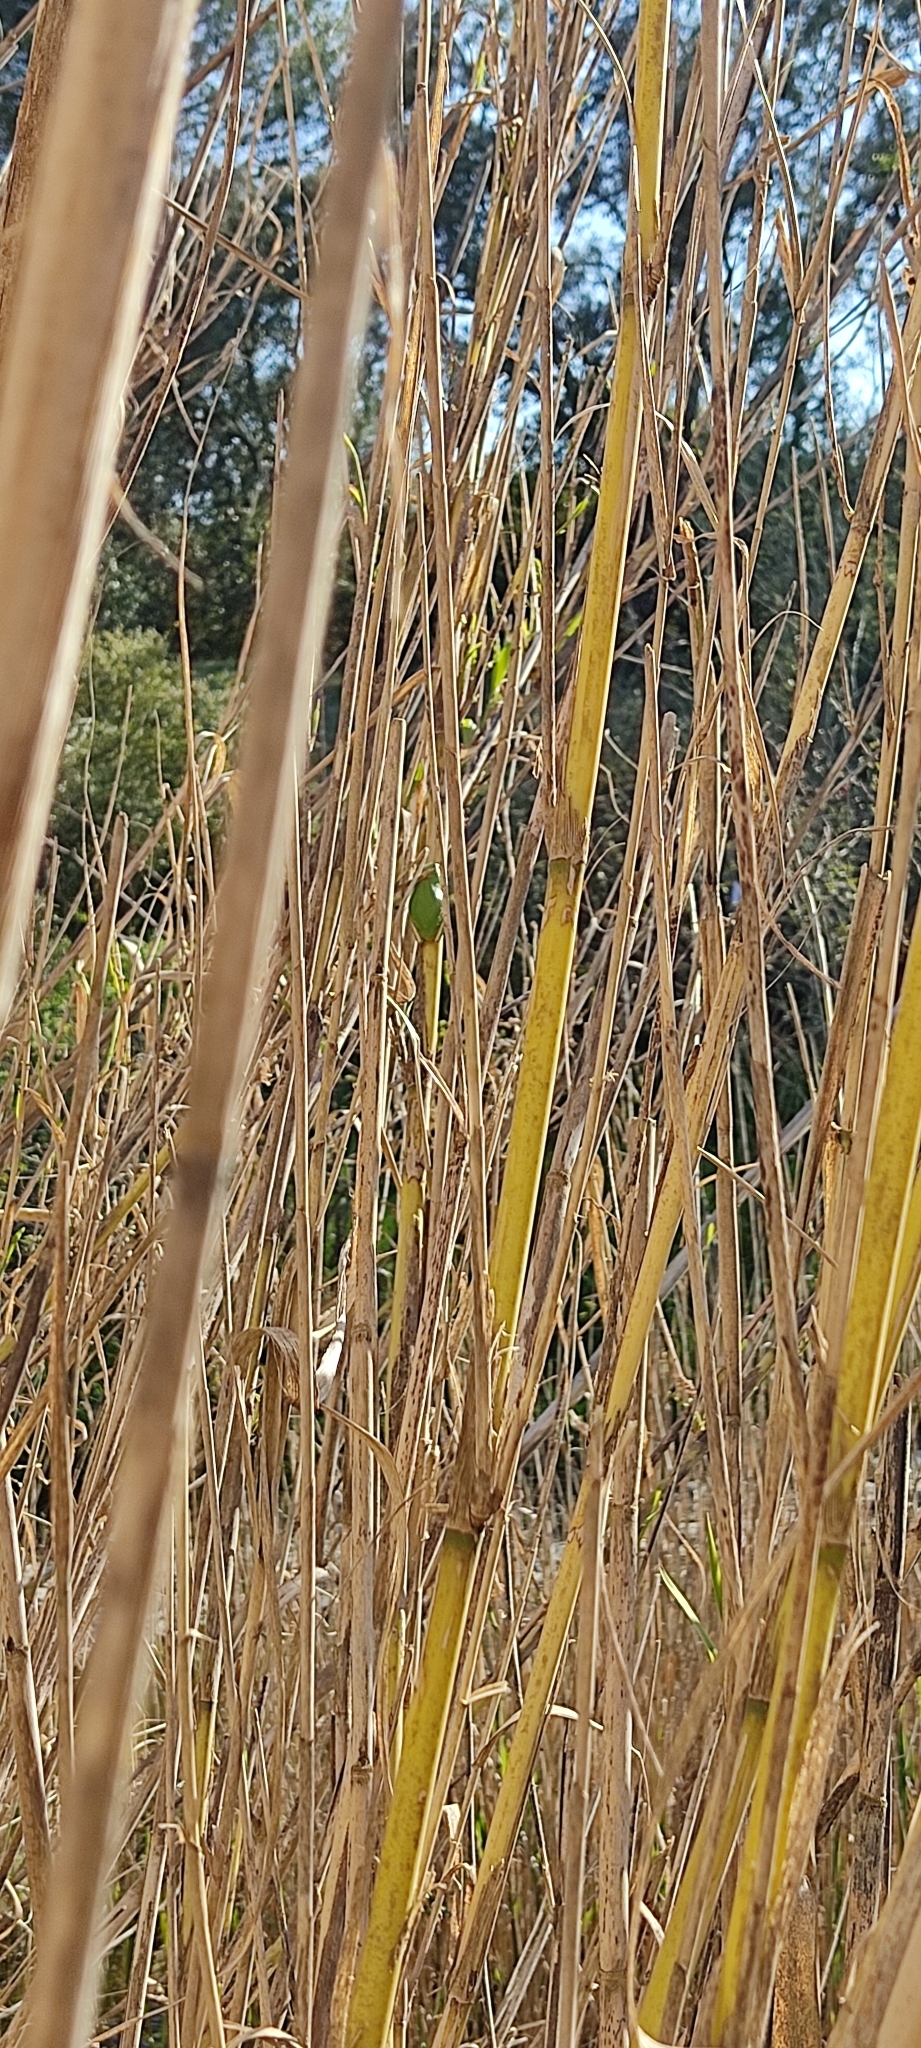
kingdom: Animalia
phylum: Chordata
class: Amphibia
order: Anura
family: Hylidae
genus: Hyla
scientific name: Hyla meridionalis
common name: Stripeless tree frog
